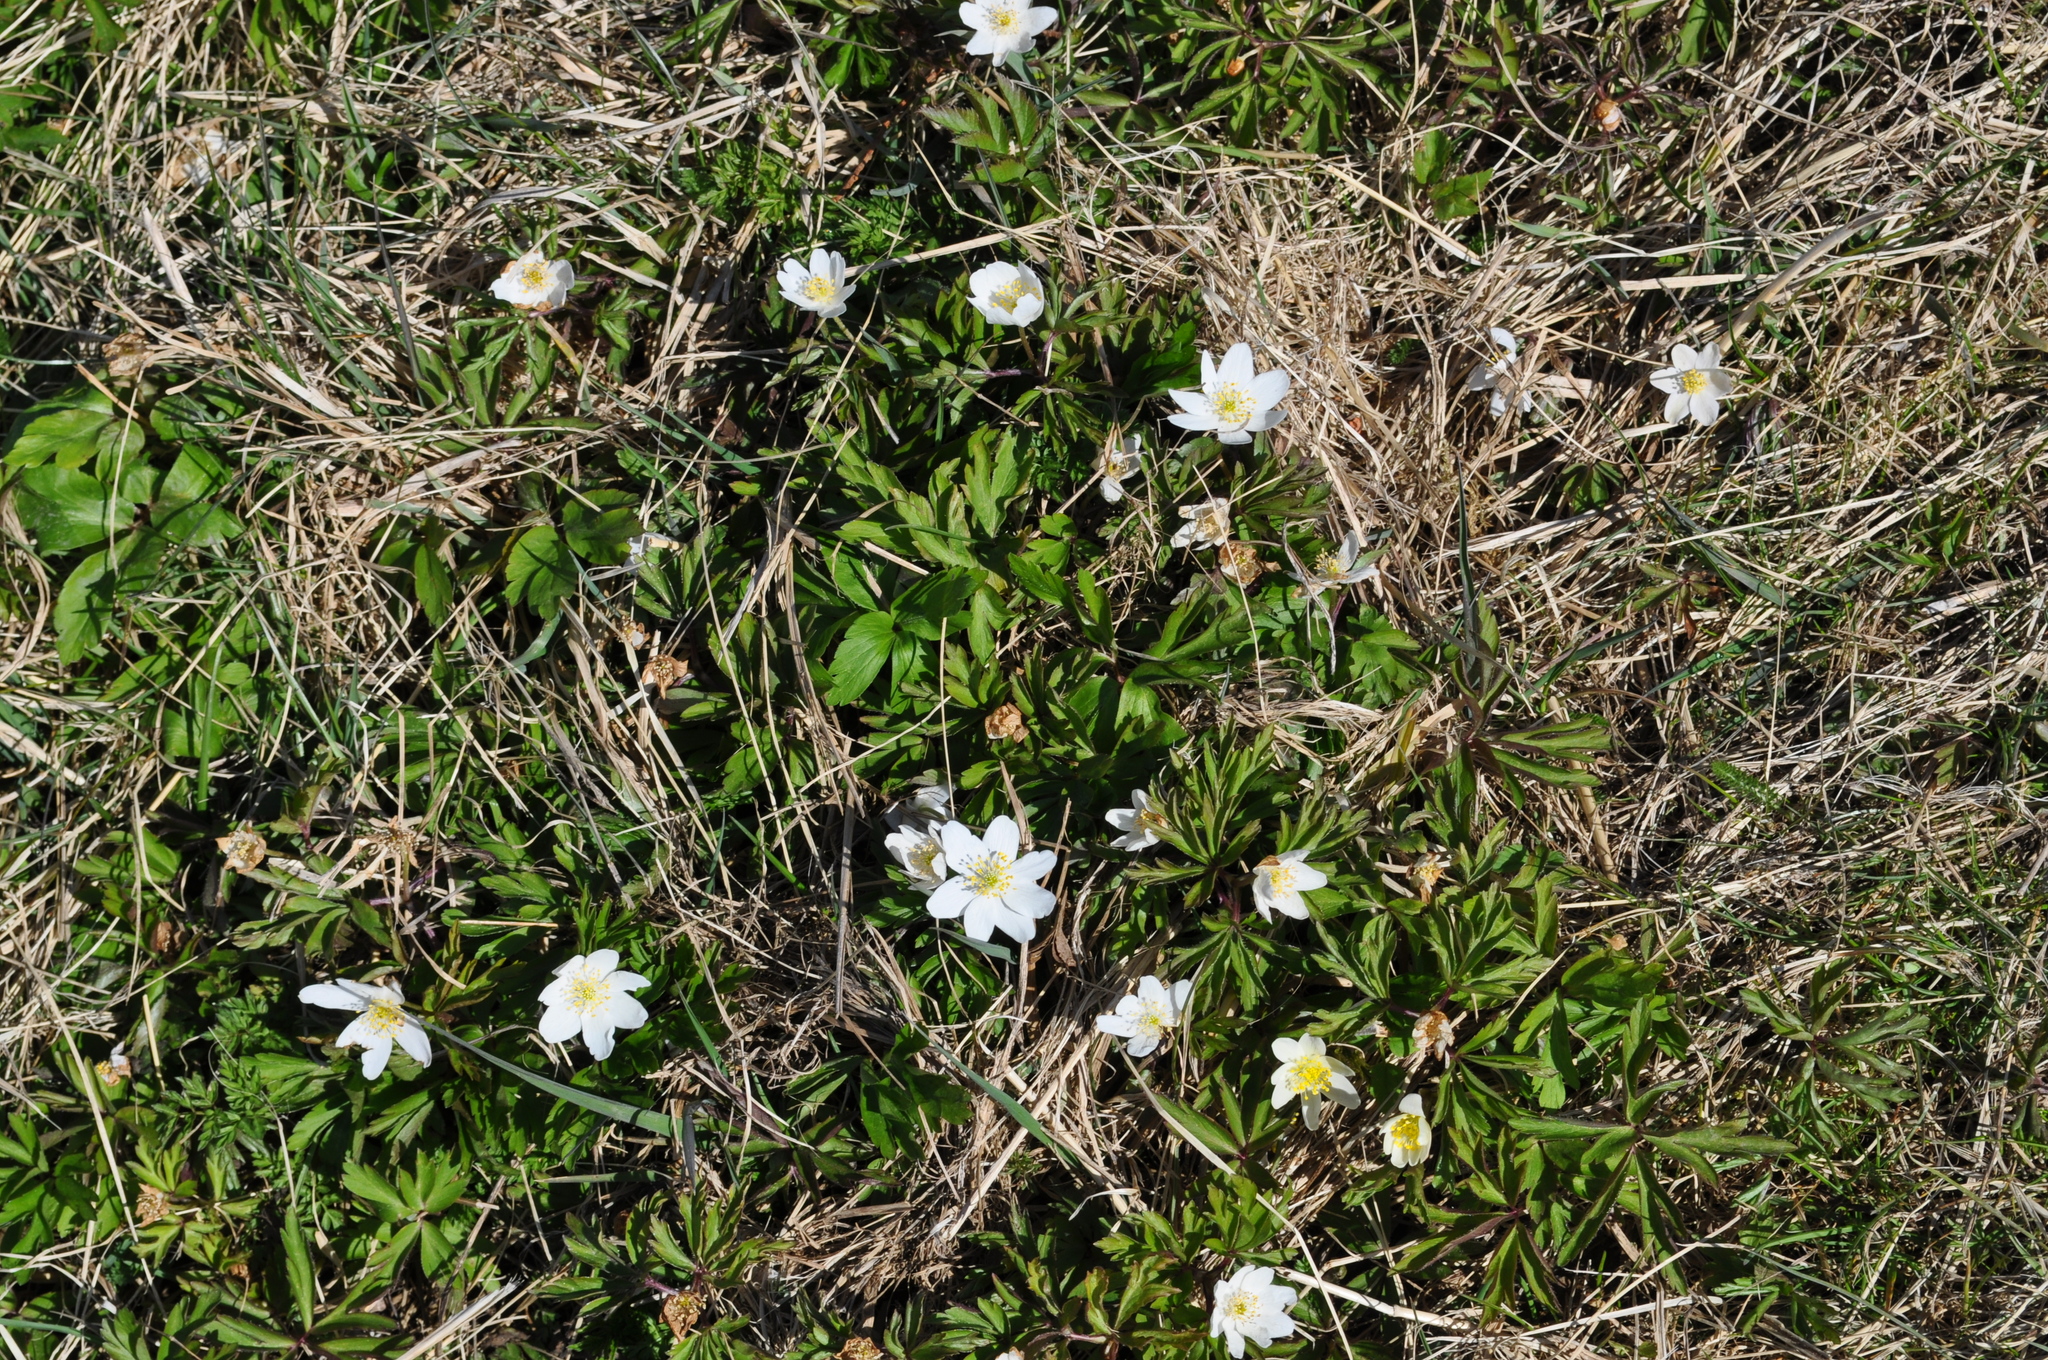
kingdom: Plantae
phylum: Tracheophyta
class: Magnoliopsida
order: Ranunculales
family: Ranunculaceae
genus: Anemone
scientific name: Anemone nemorosa
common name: Wood anemone
